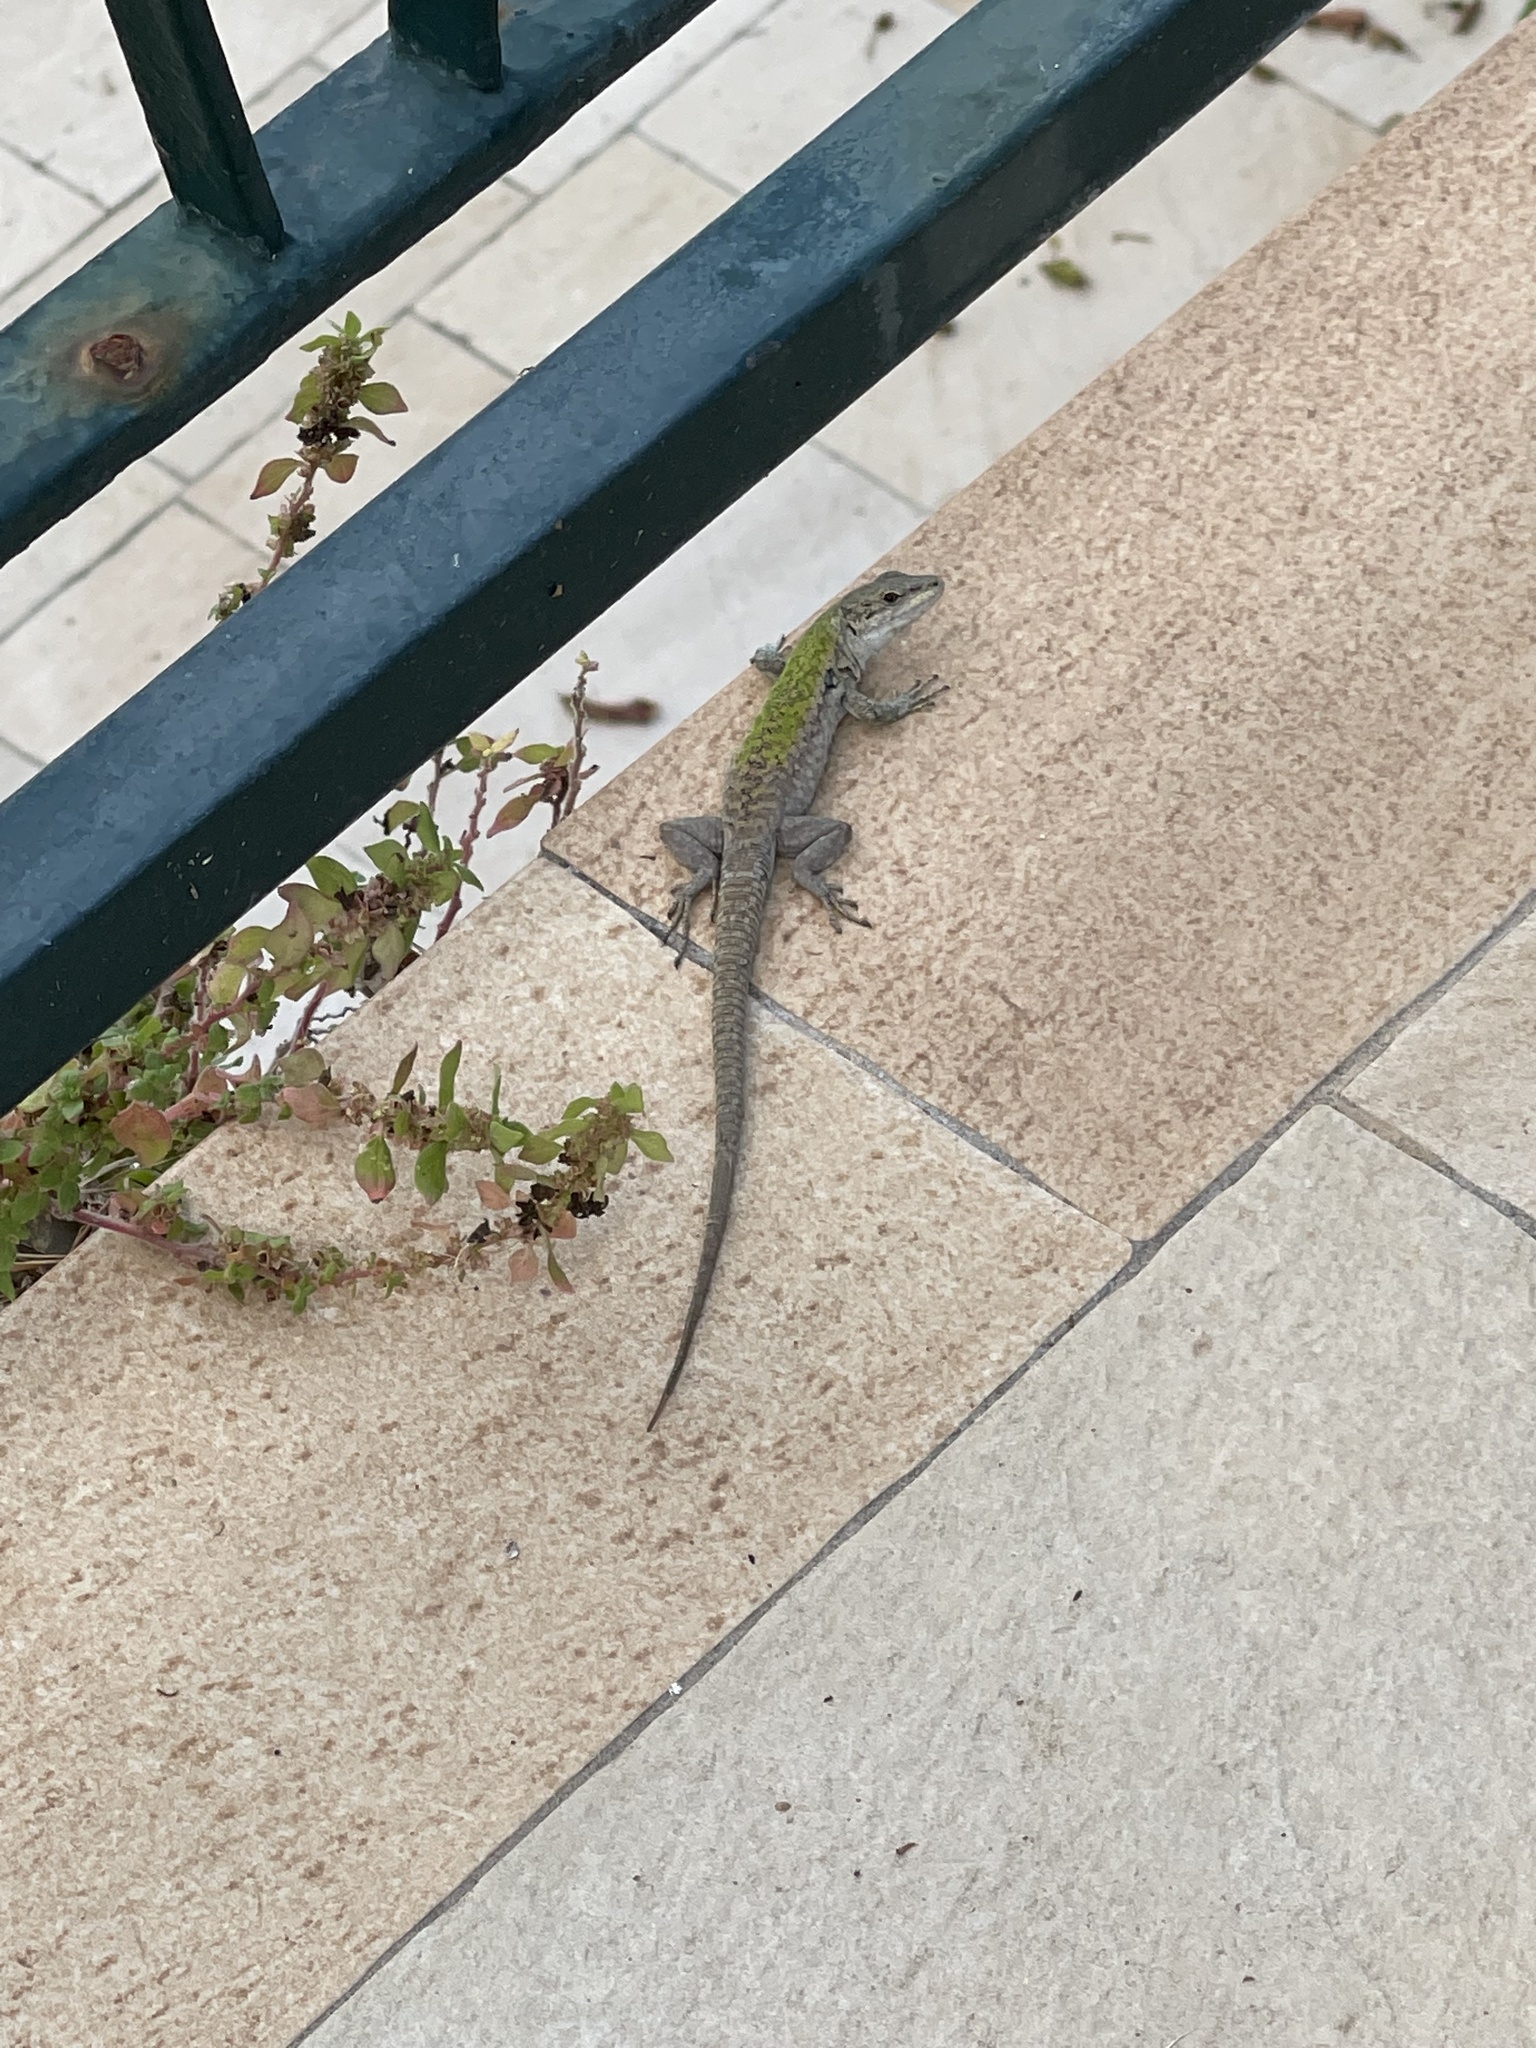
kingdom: Animalia
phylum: Chordata
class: Squamata
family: Lacertidae
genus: Podarcis
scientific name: Podarcis siculus
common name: Italian wall lizard
